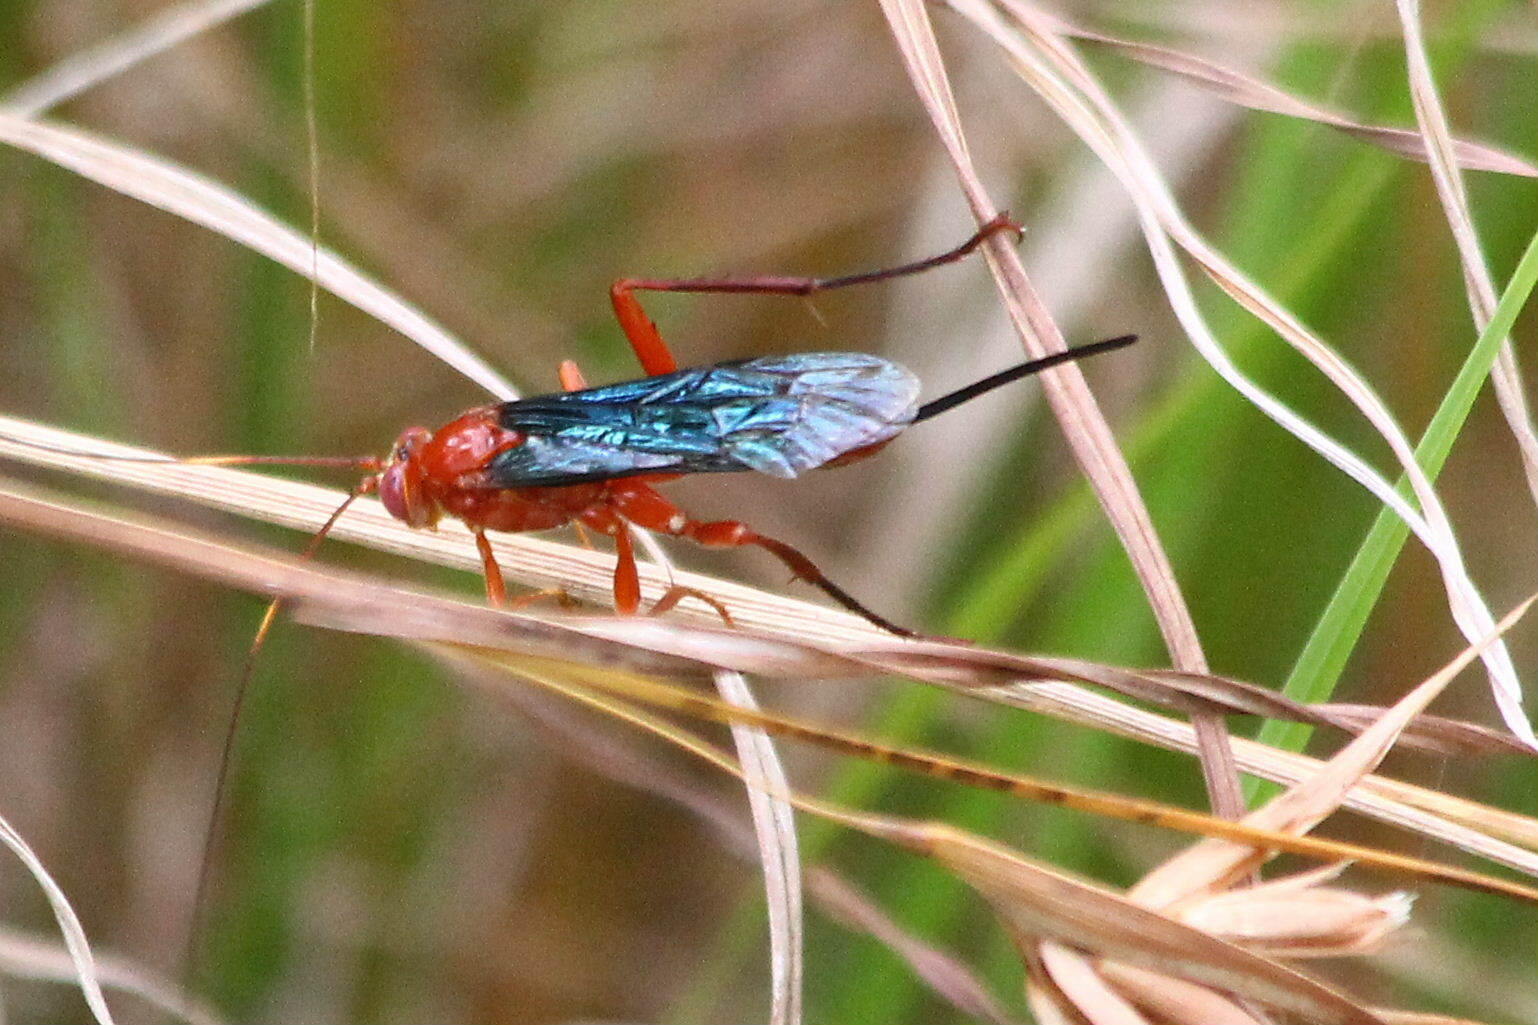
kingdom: Animalia
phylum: Arthropoda
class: Insecta
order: Hymenoptera
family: Ichneumonidae
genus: Lissopimpla
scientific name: Lissopimpla excelsa
